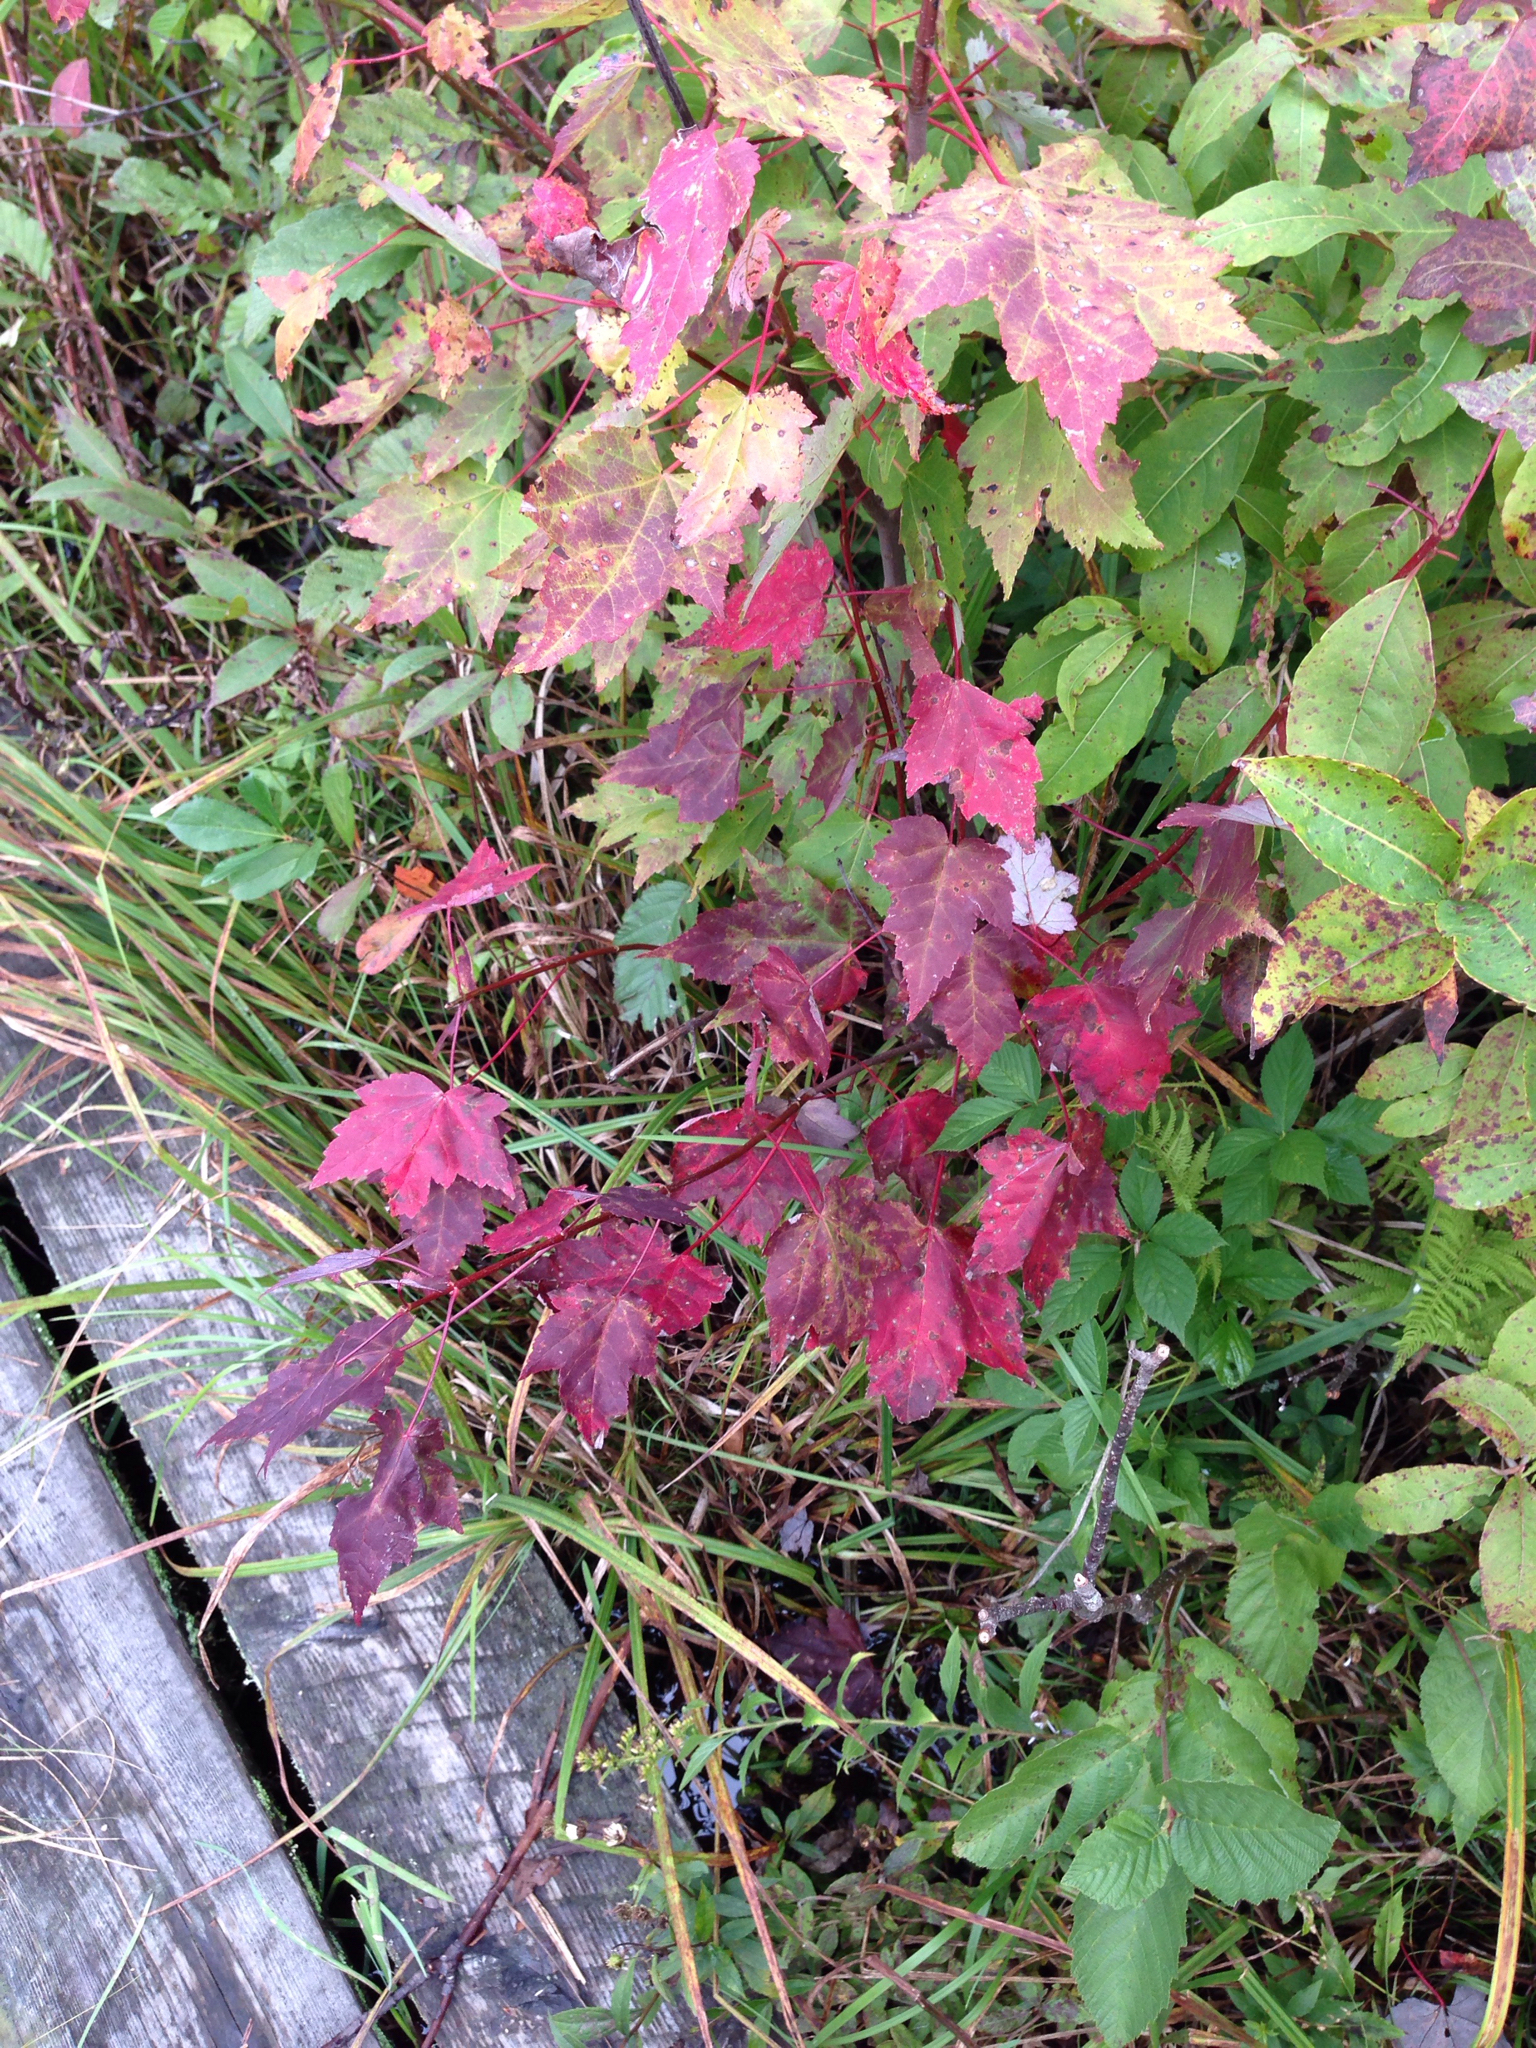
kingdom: Plantae
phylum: Tracheophyta
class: Magnoliopsida
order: Sapindales
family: Sapindaceae
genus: Acer
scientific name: Acer rubrum
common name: Red maple
